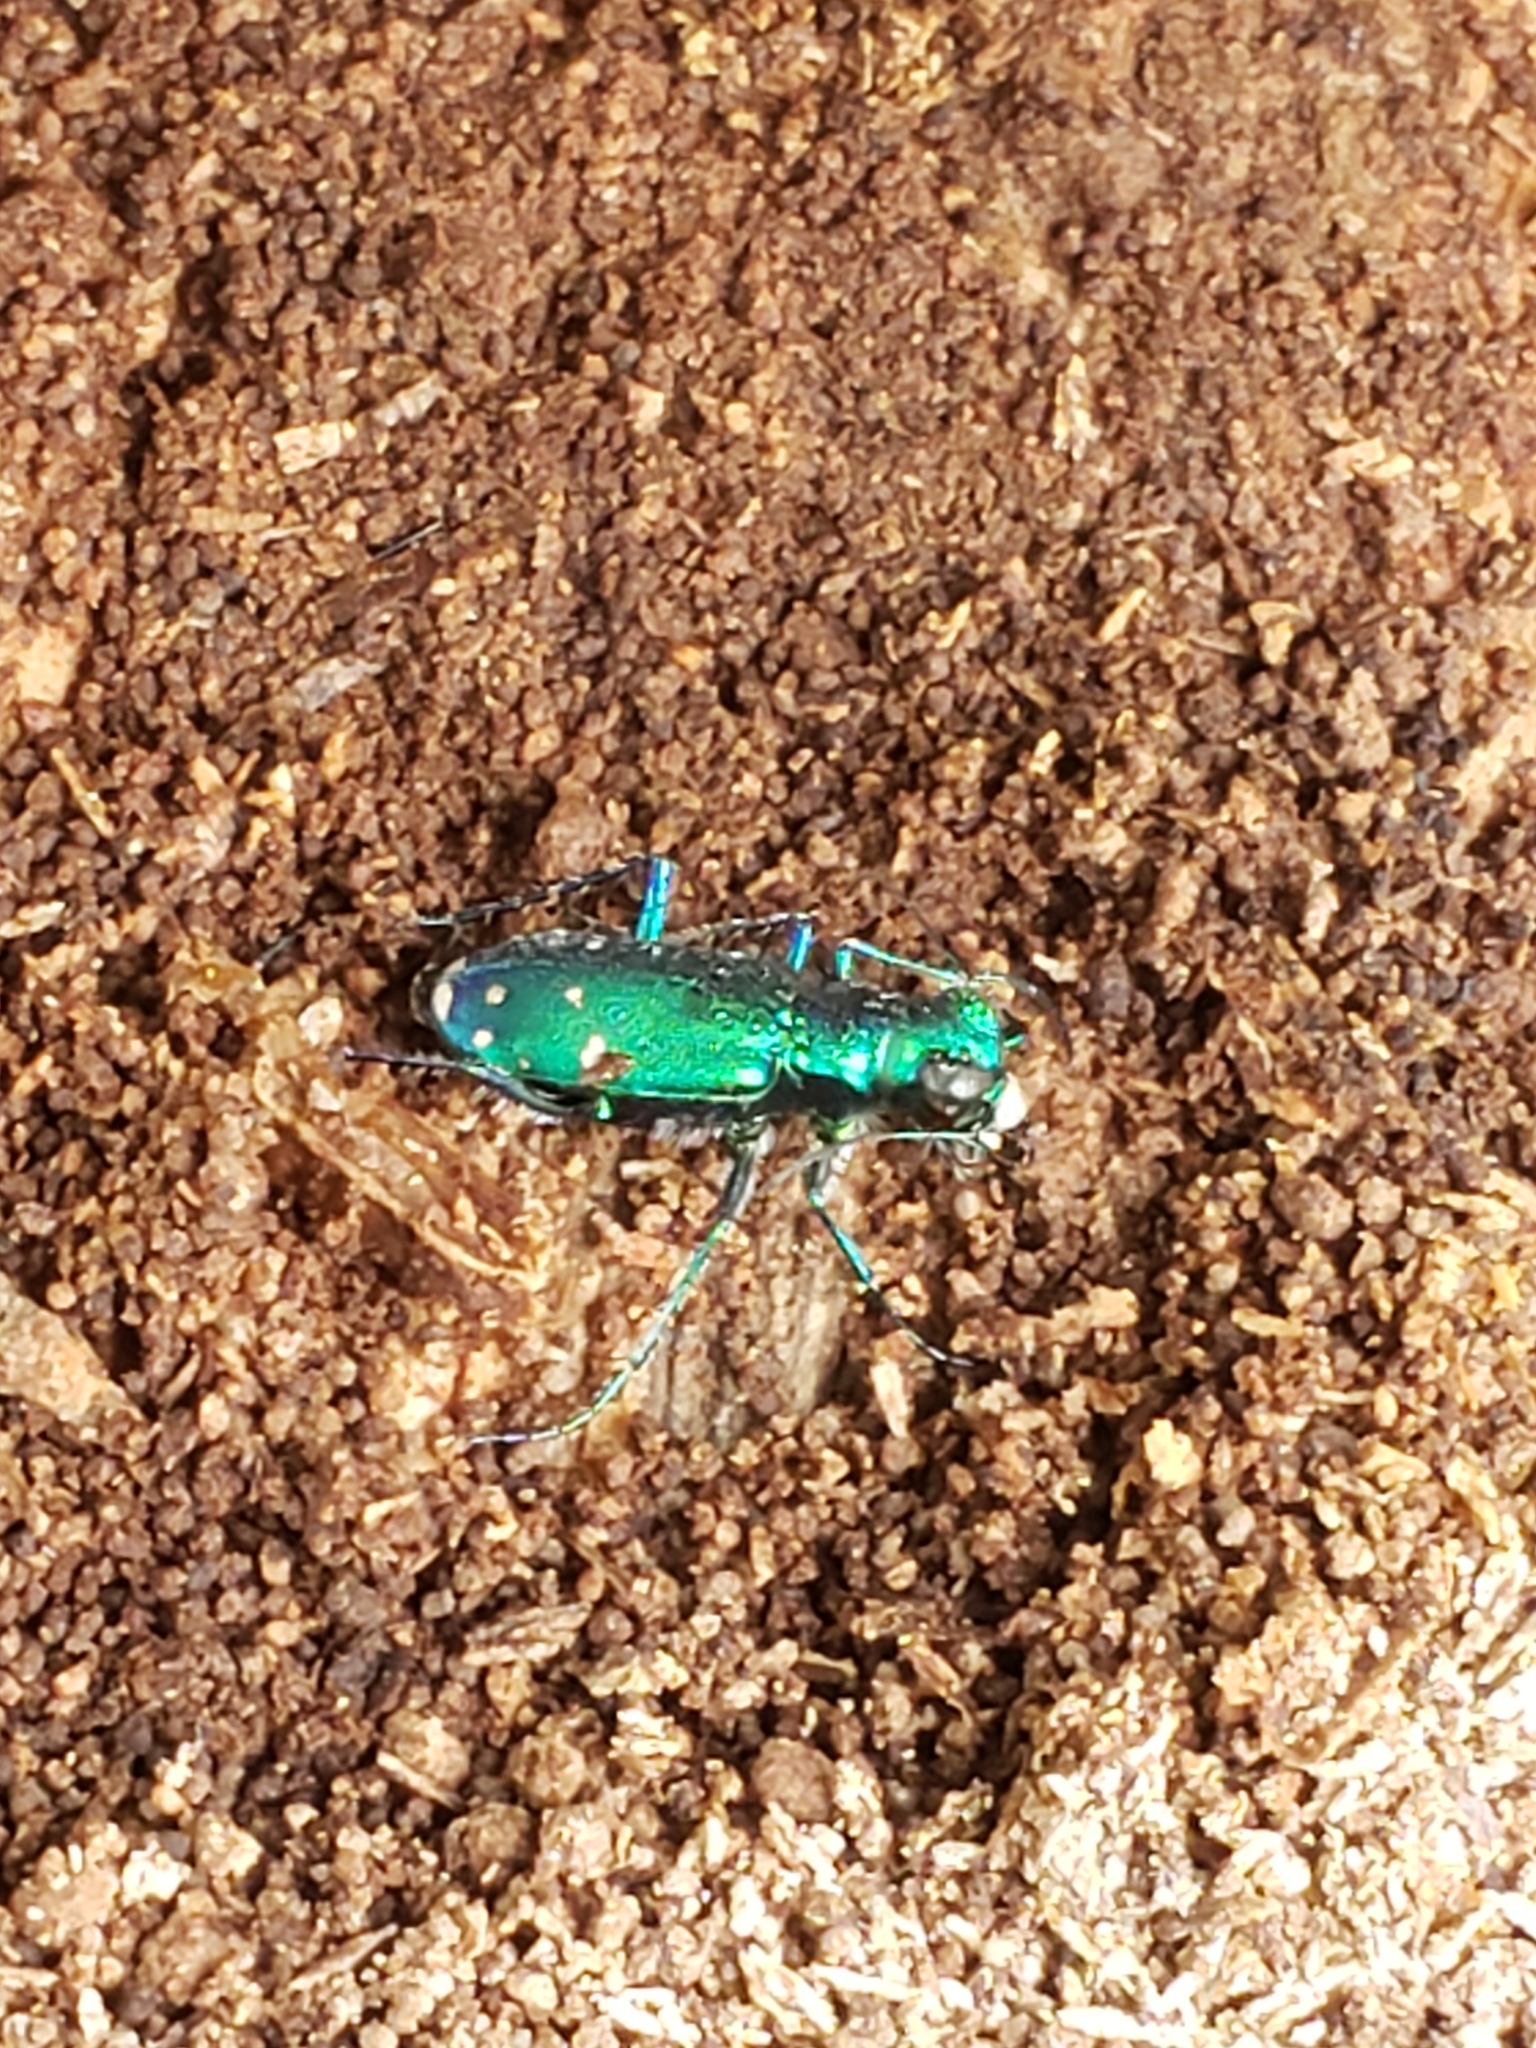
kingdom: Animalia
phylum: Arthropoda
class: Insecta
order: Coleoptera
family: Carabidae
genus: Cicindela
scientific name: Cicindela sexguttata
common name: Six-spotted tiger beetle
